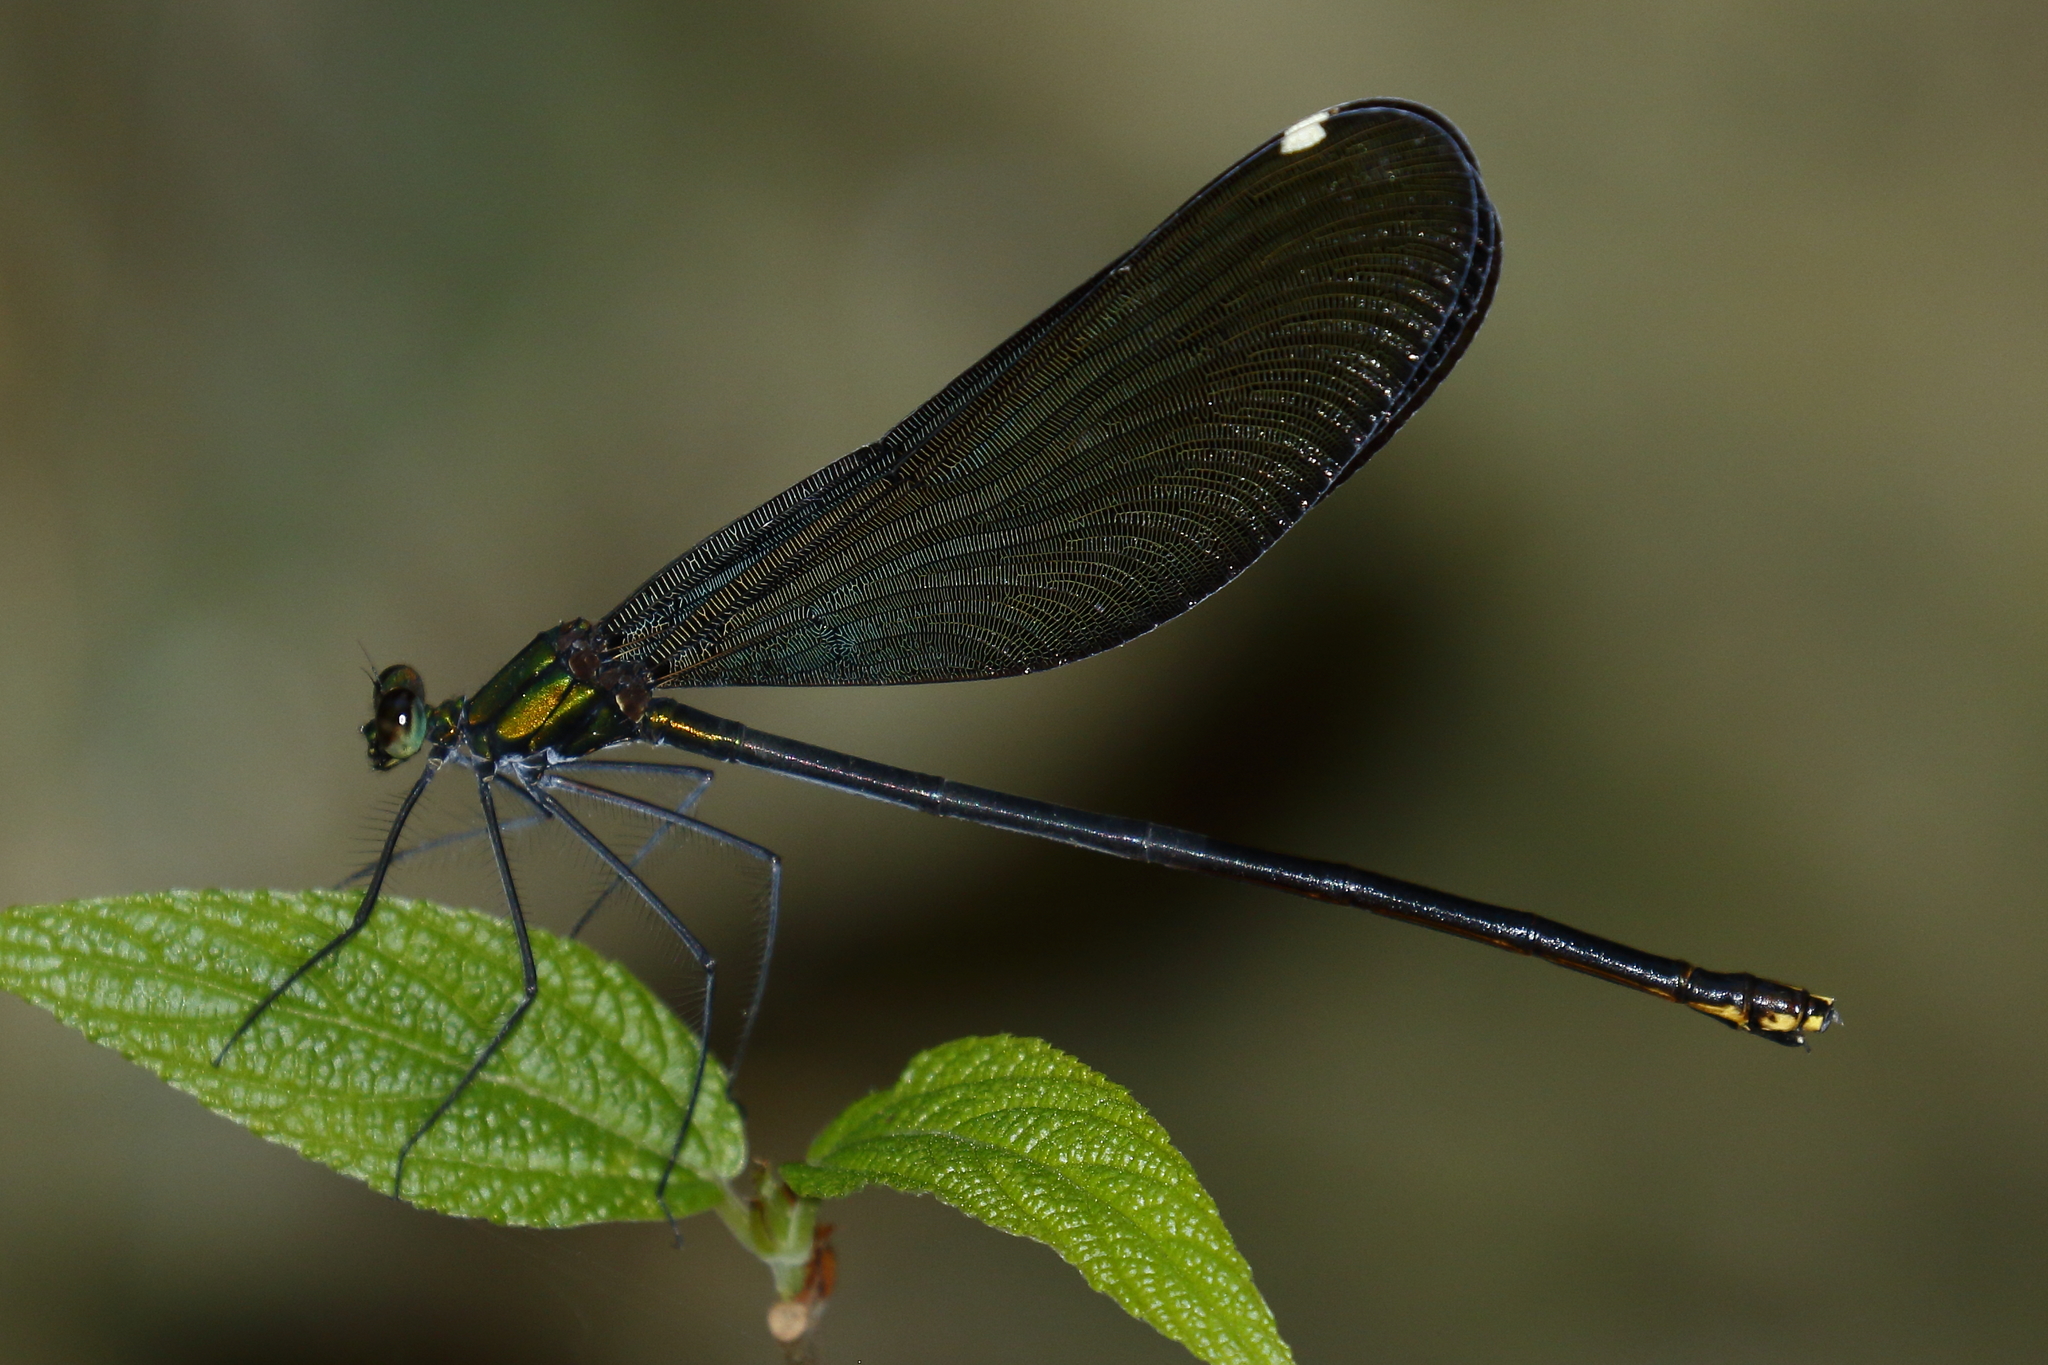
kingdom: Animalia
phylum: Arthropoda
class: Insecta
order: Odonata
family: Calopterygidae
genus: Matrona
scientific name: Matrona cyanoptera
